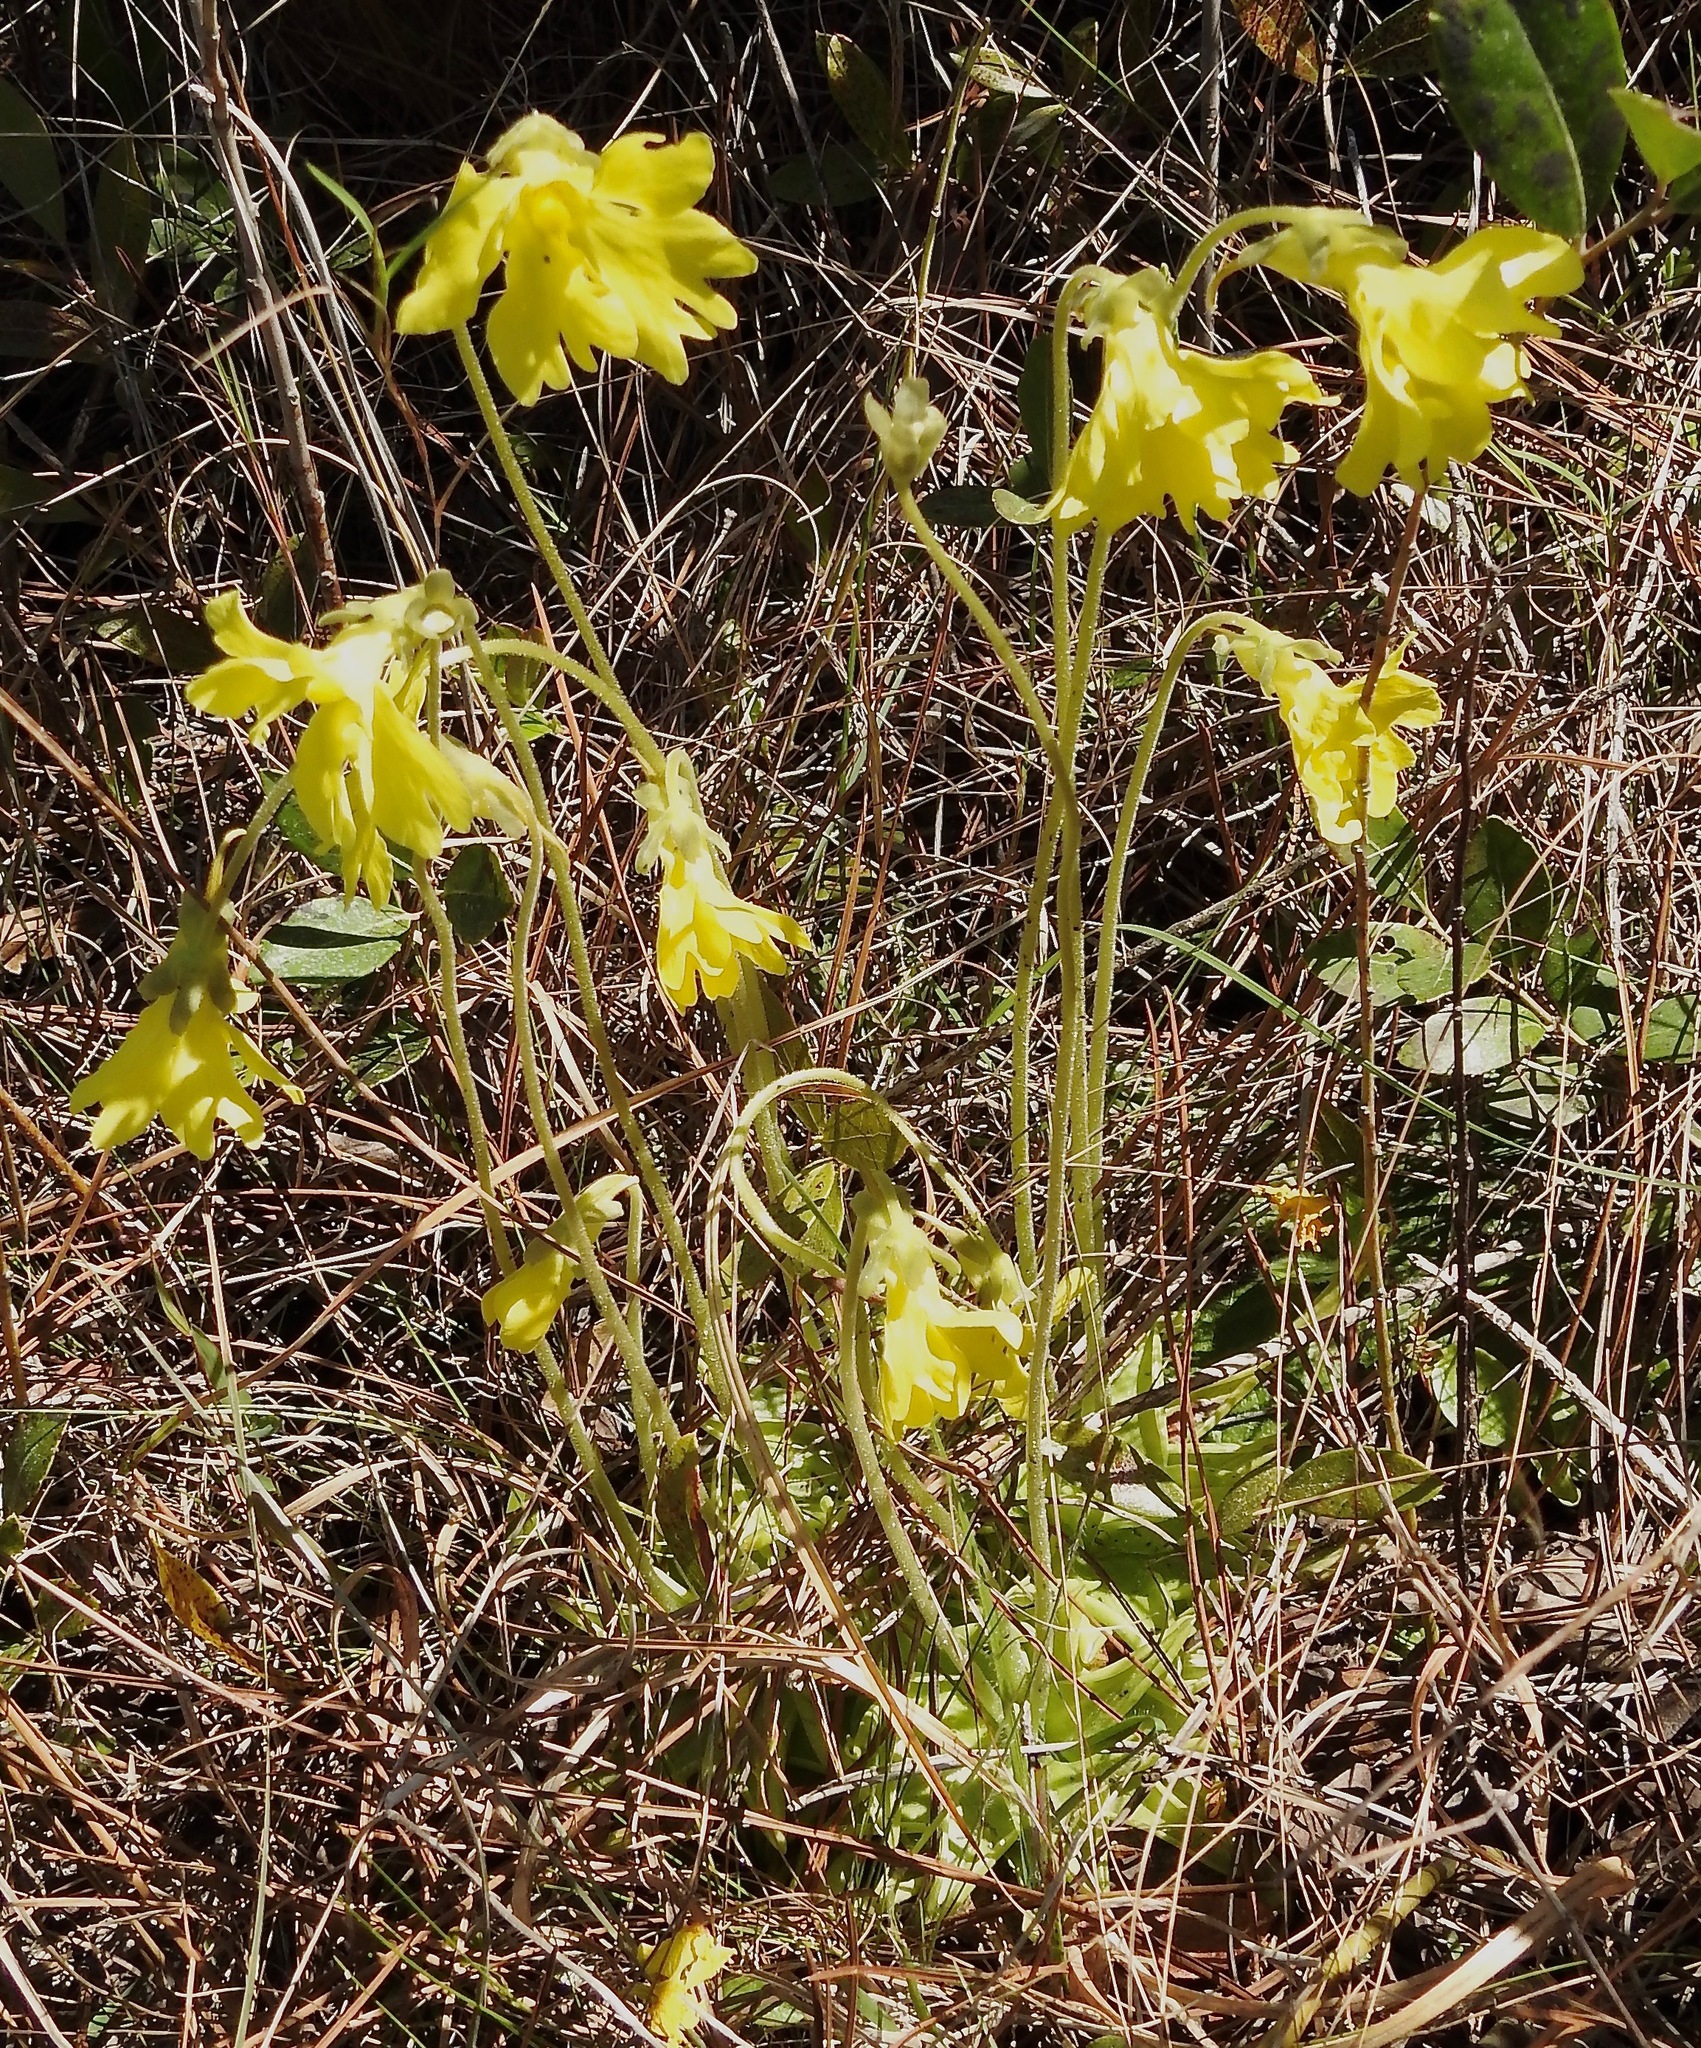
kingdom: Plantae
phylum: Tracheophyta
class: Magnoliopsida
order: Lamiales
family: Lentibulariaceae
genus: Pinguicula
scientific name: Pinguicula lutea
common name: Yellow butterwort
